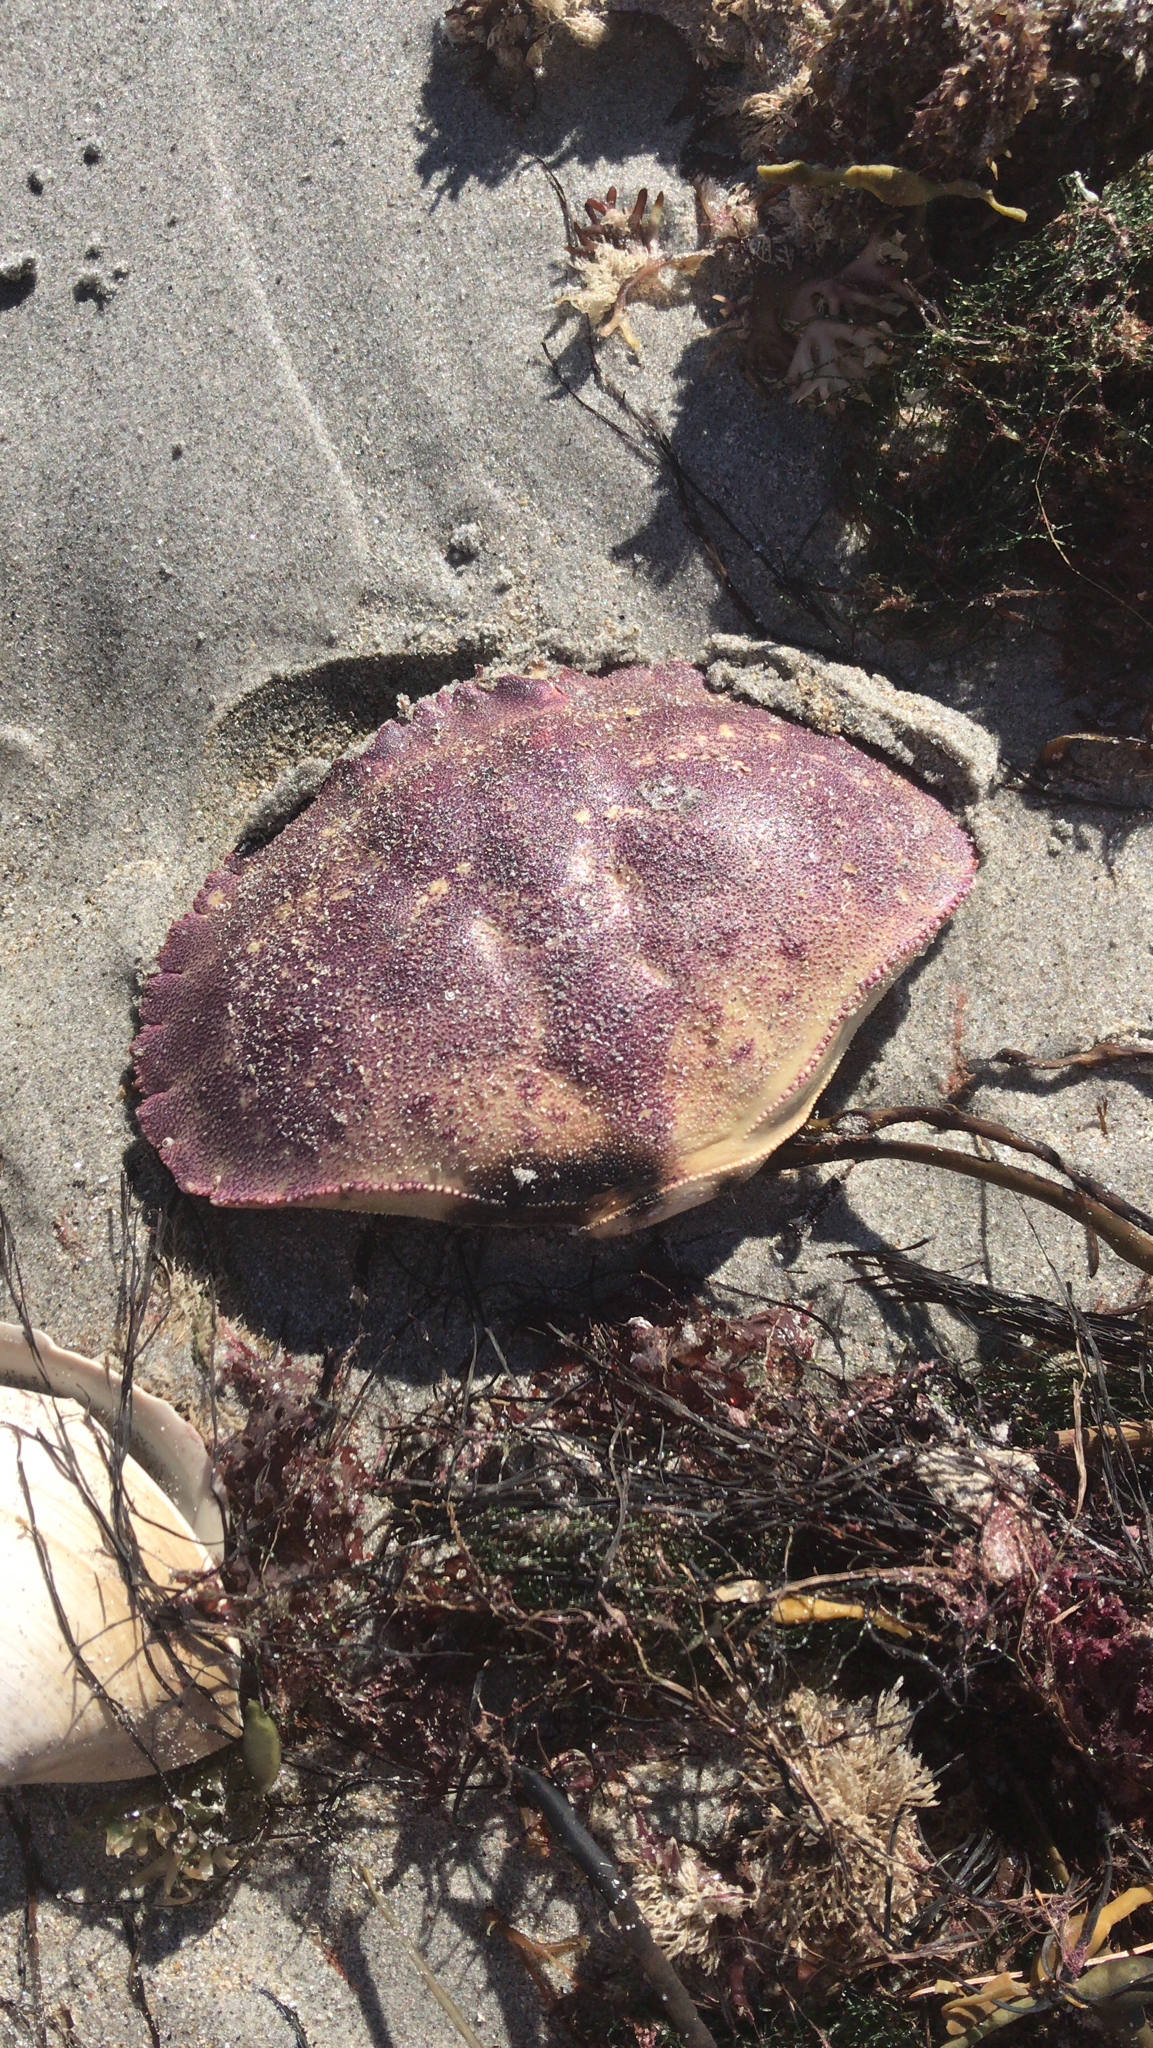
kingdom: Animalia
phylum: Arthropoda
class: Malacostraca
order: Decapoda
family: Cancridae
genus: Cancer
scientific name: Cancer borealis
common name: Jonah crab
